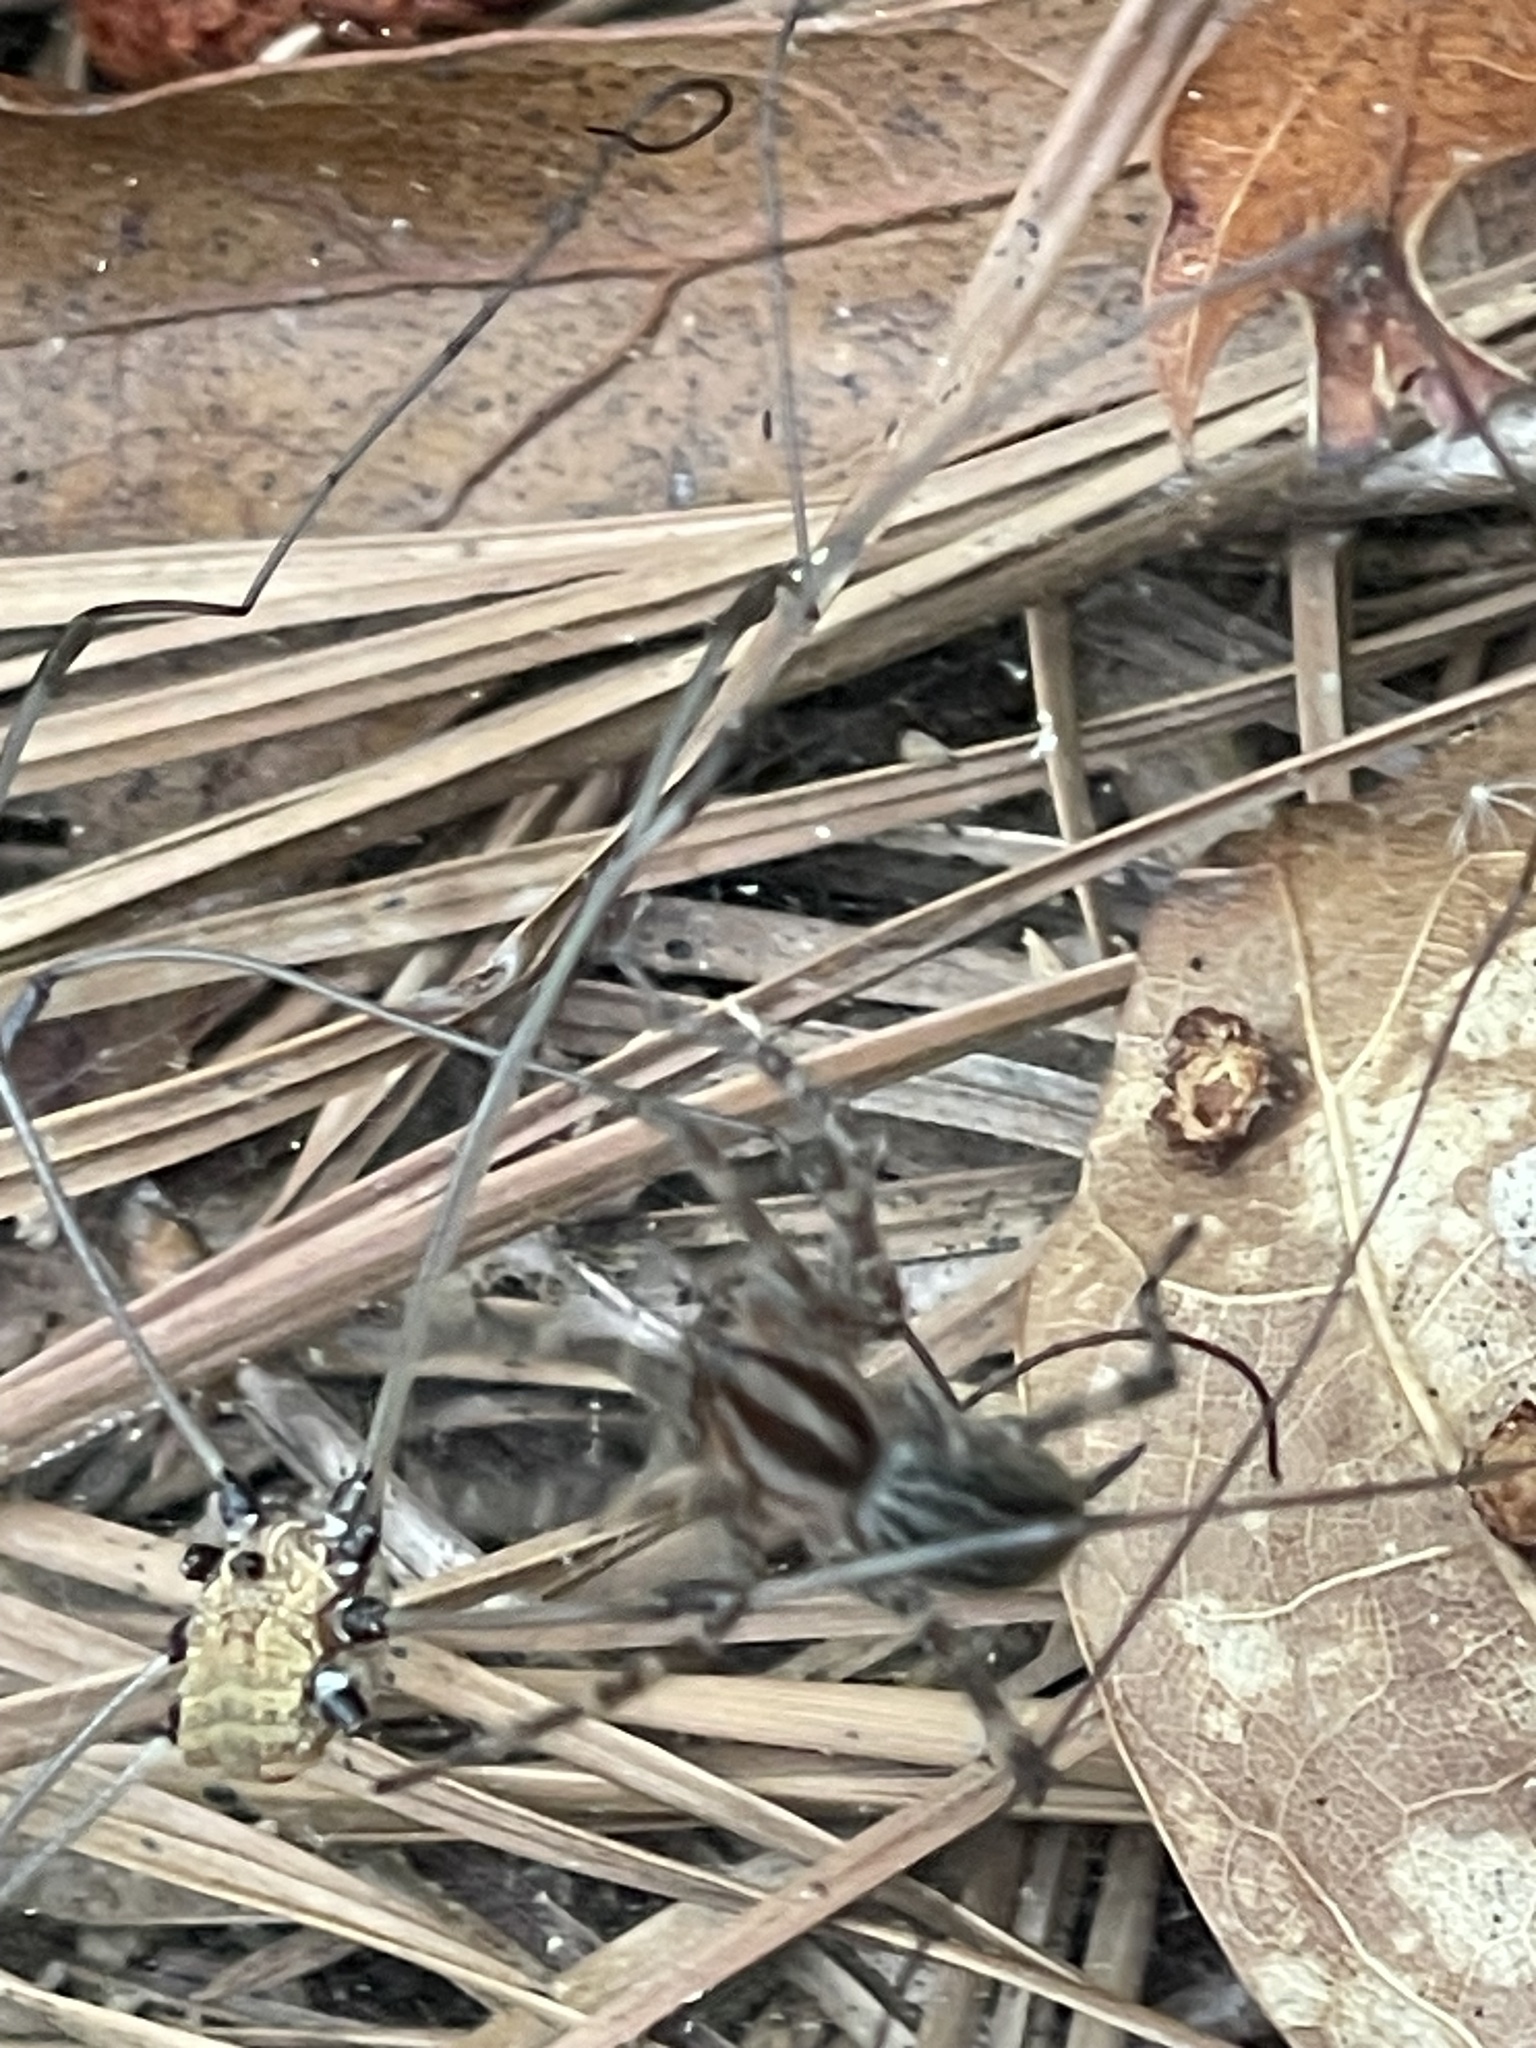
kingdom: Animalia
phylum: Arthropoda
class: Arachnida
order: Araneae
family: Agelenidae
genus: Agelenopsis
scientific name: Agelenopsis
